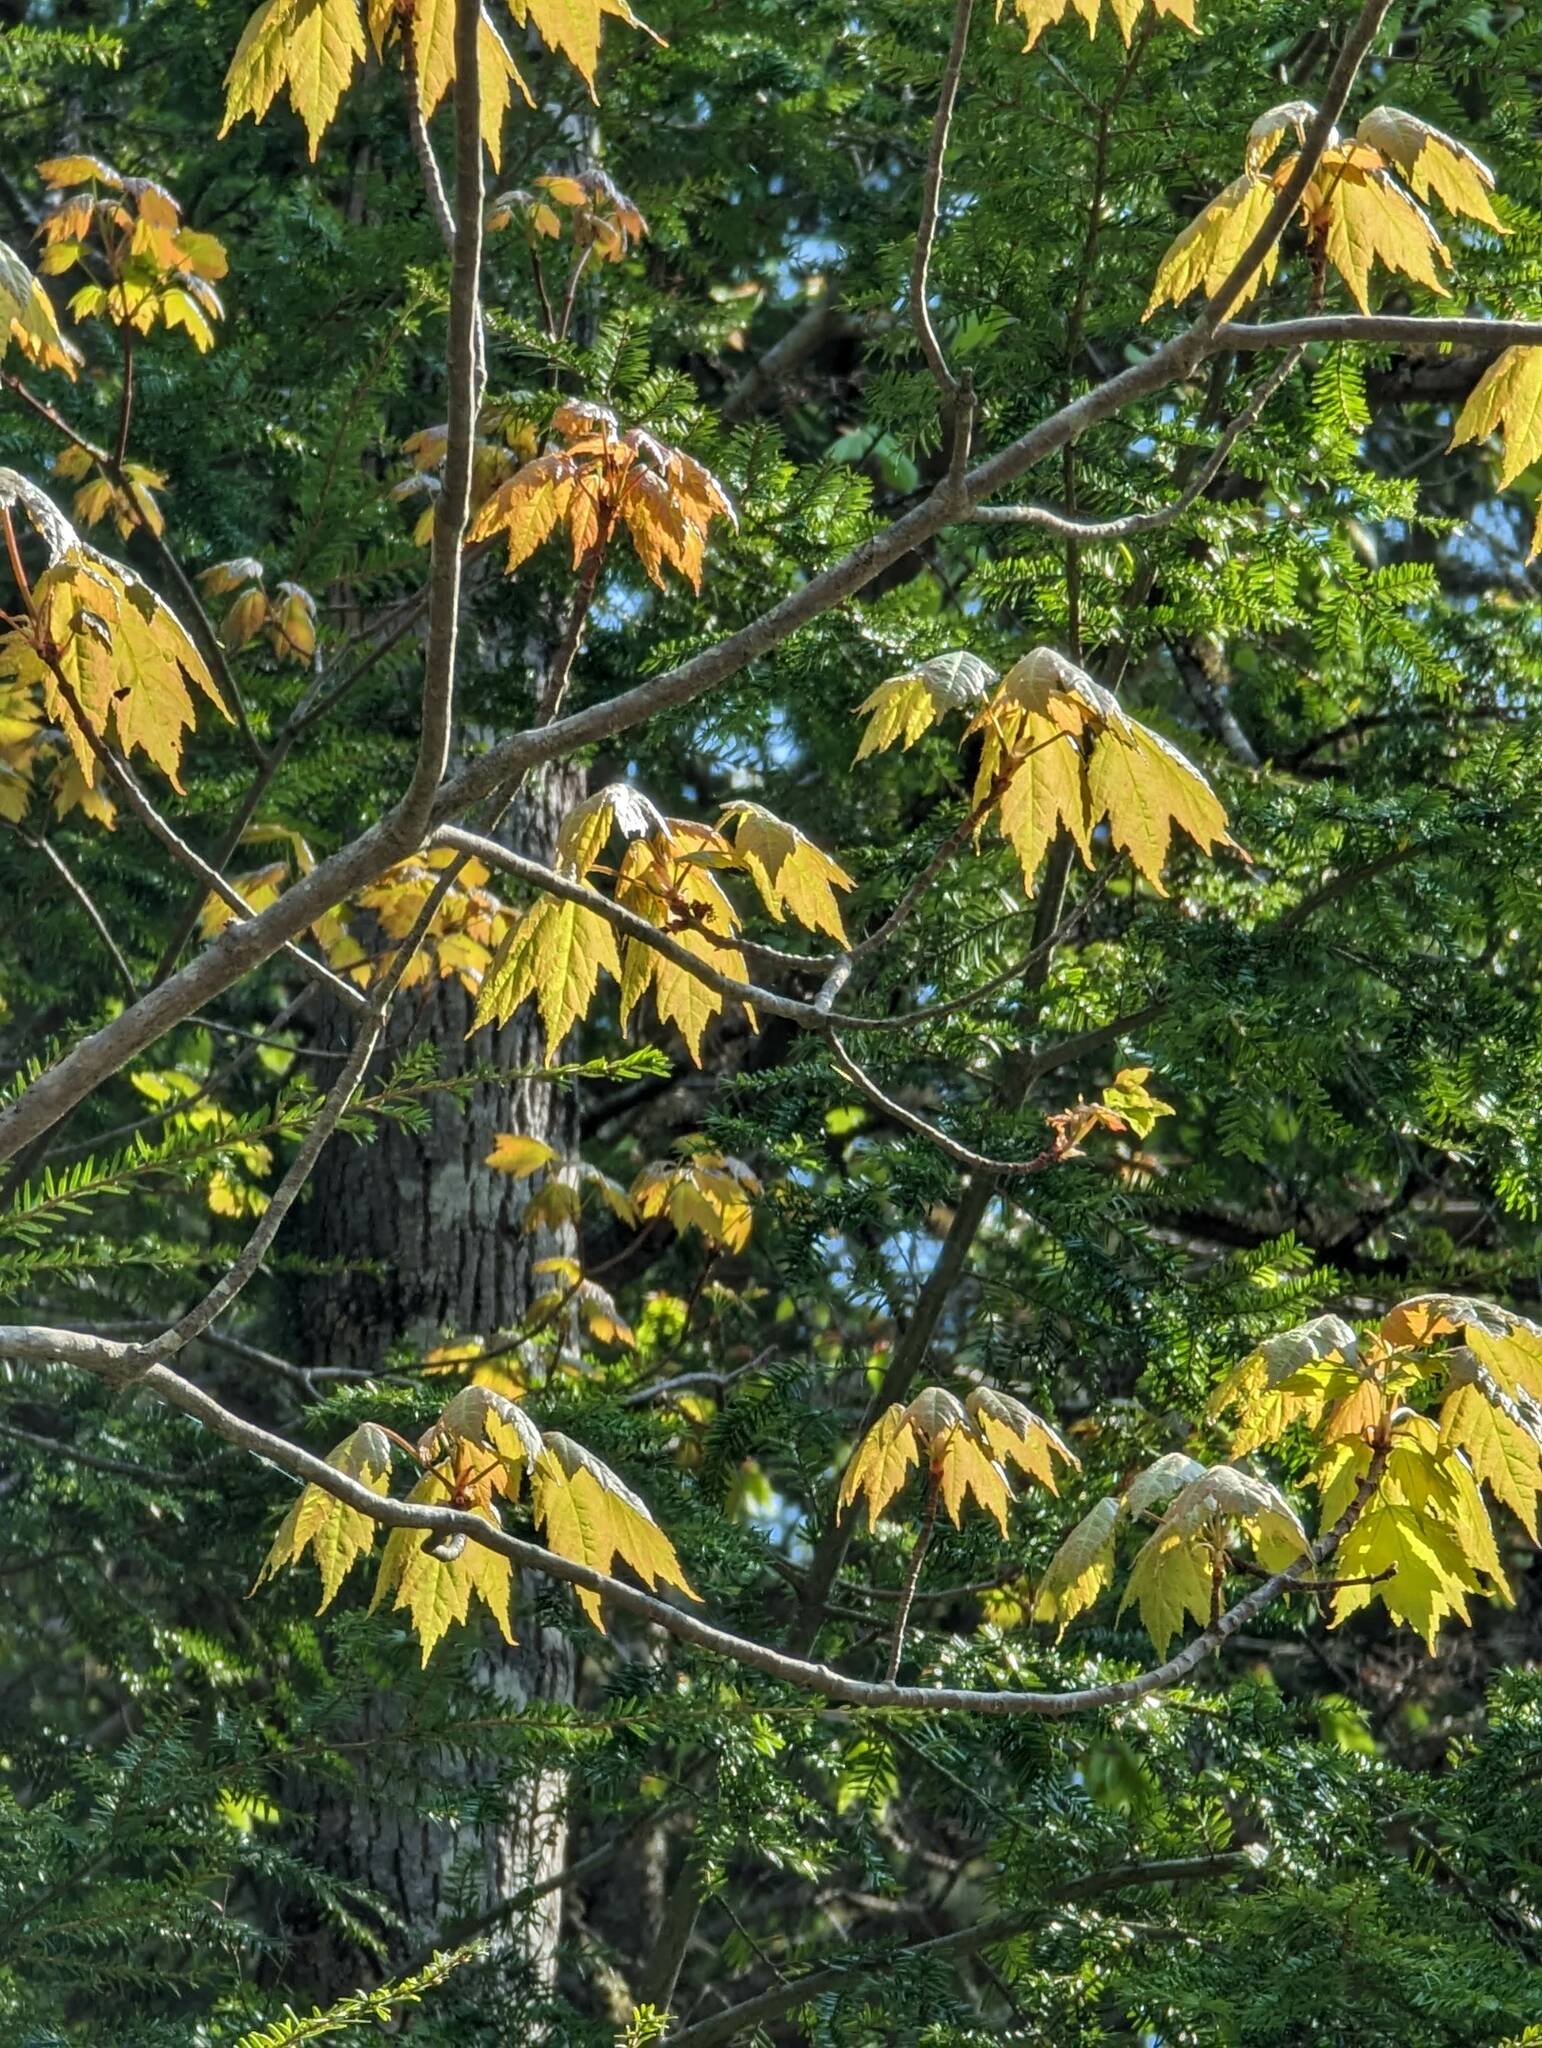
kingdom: Plantae
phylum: Tracheophyta
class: Magnoliopsida
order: Sapindales
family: Sapindaceae
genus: Acer
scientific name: Acer rubrum
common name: Red maple
